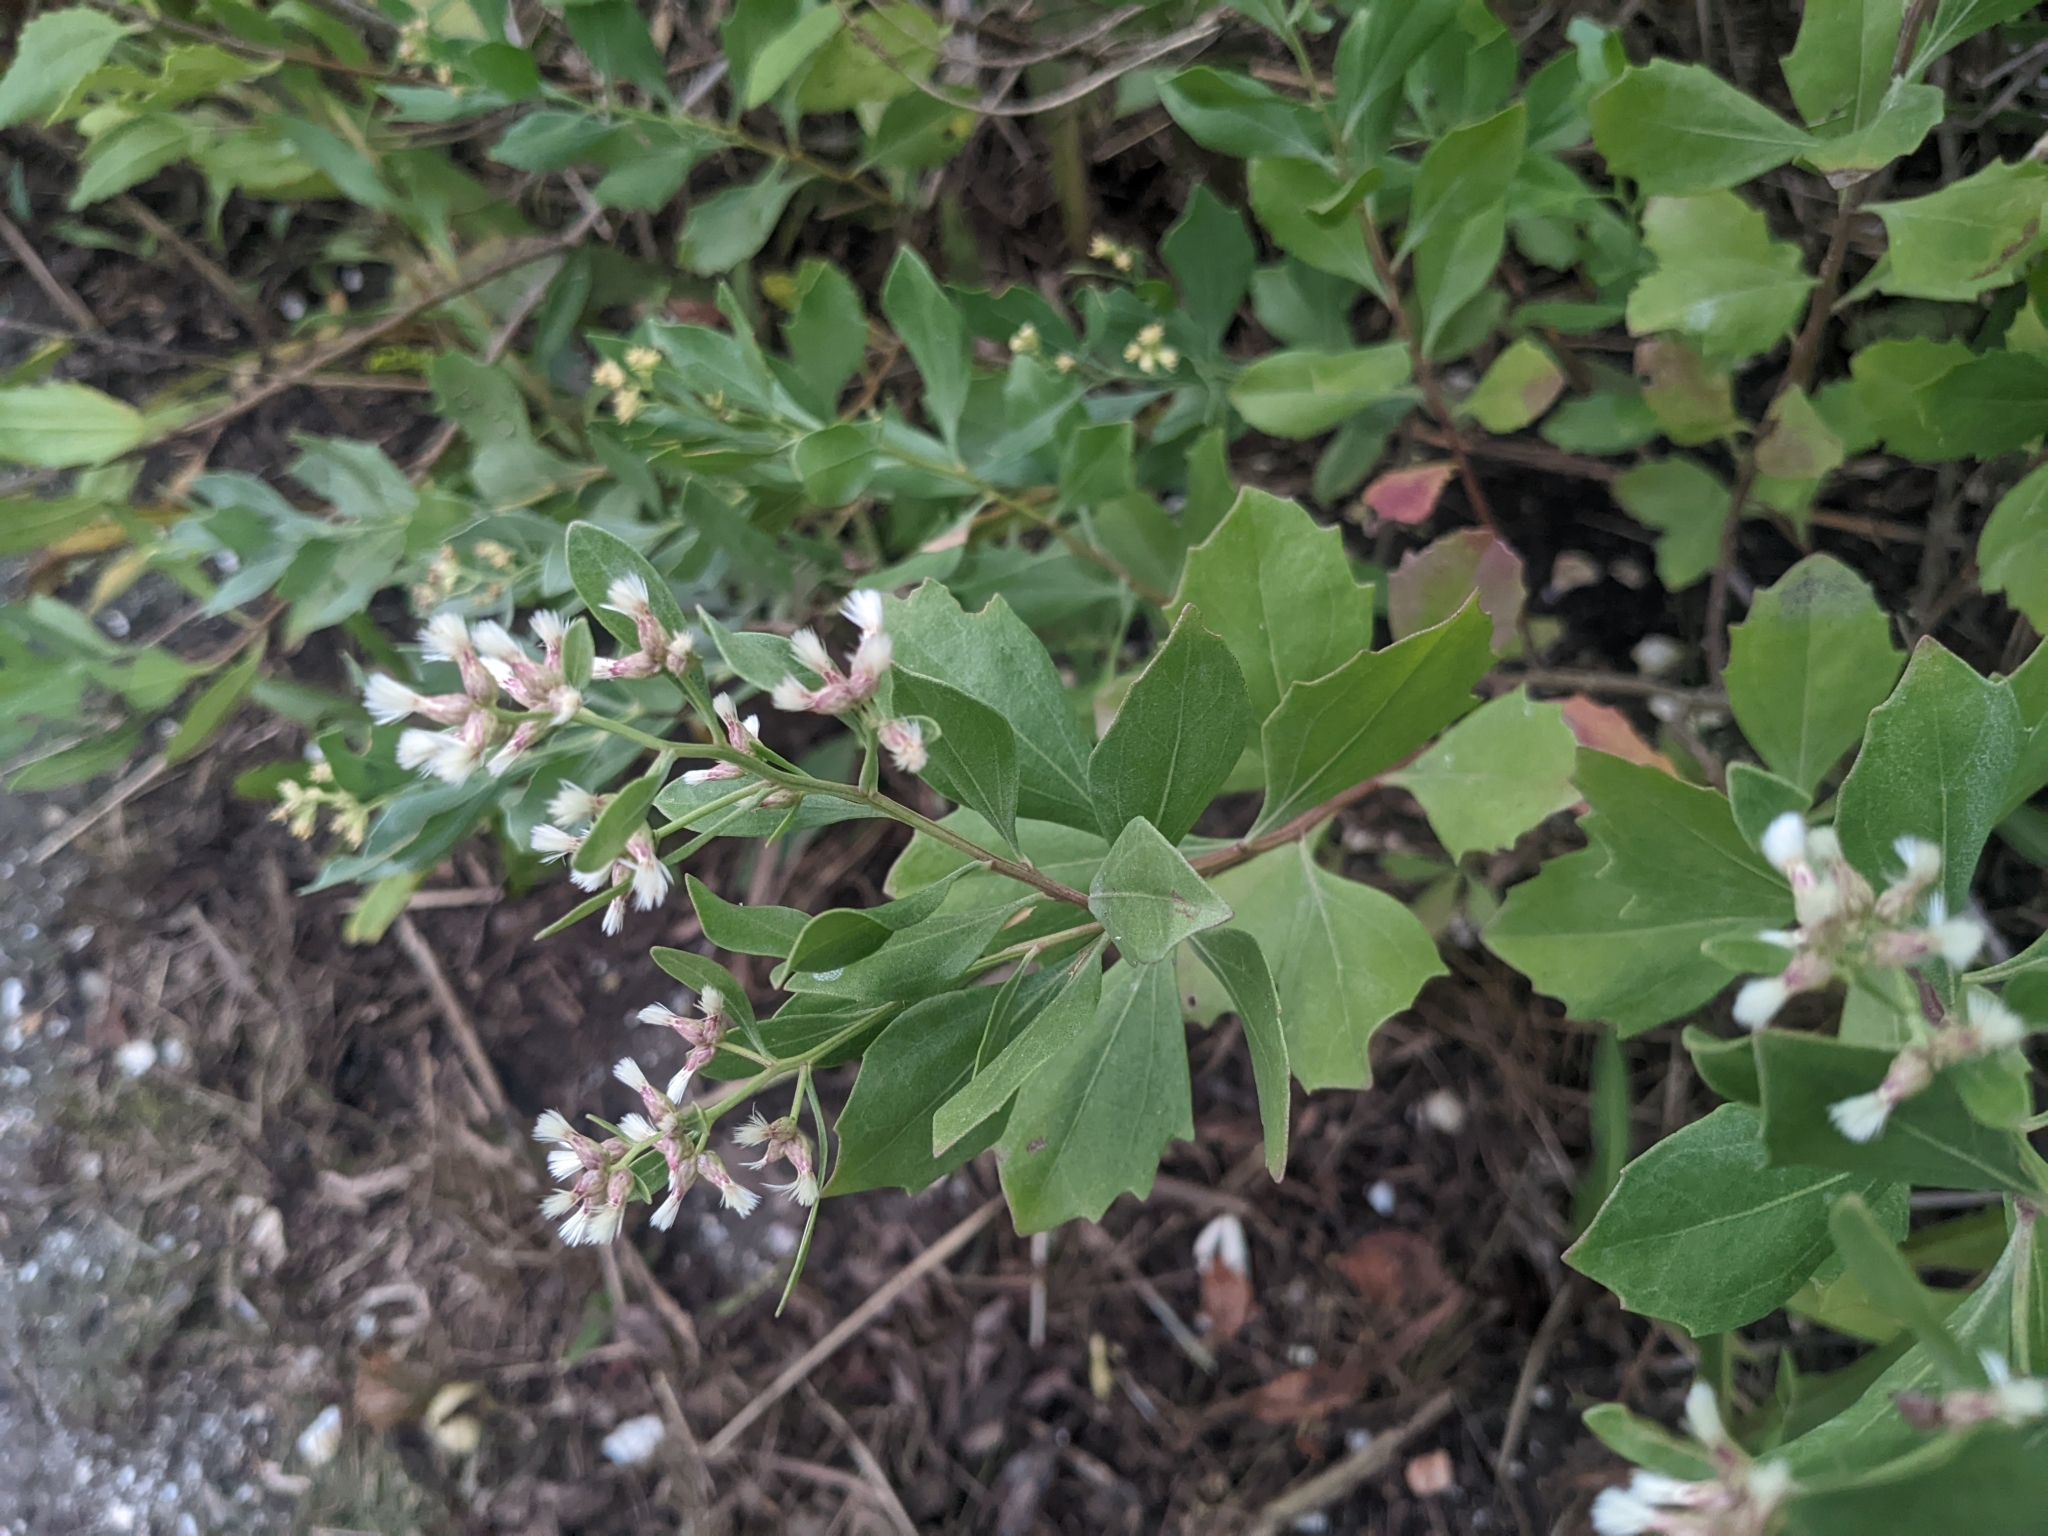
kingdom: Plantae
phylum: Tracheophyta
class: Magnoliopsida
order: Asterales
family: Asteraceae
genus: Baccharis
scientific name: Baccharis halimifolia
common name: Eastern baccharis
